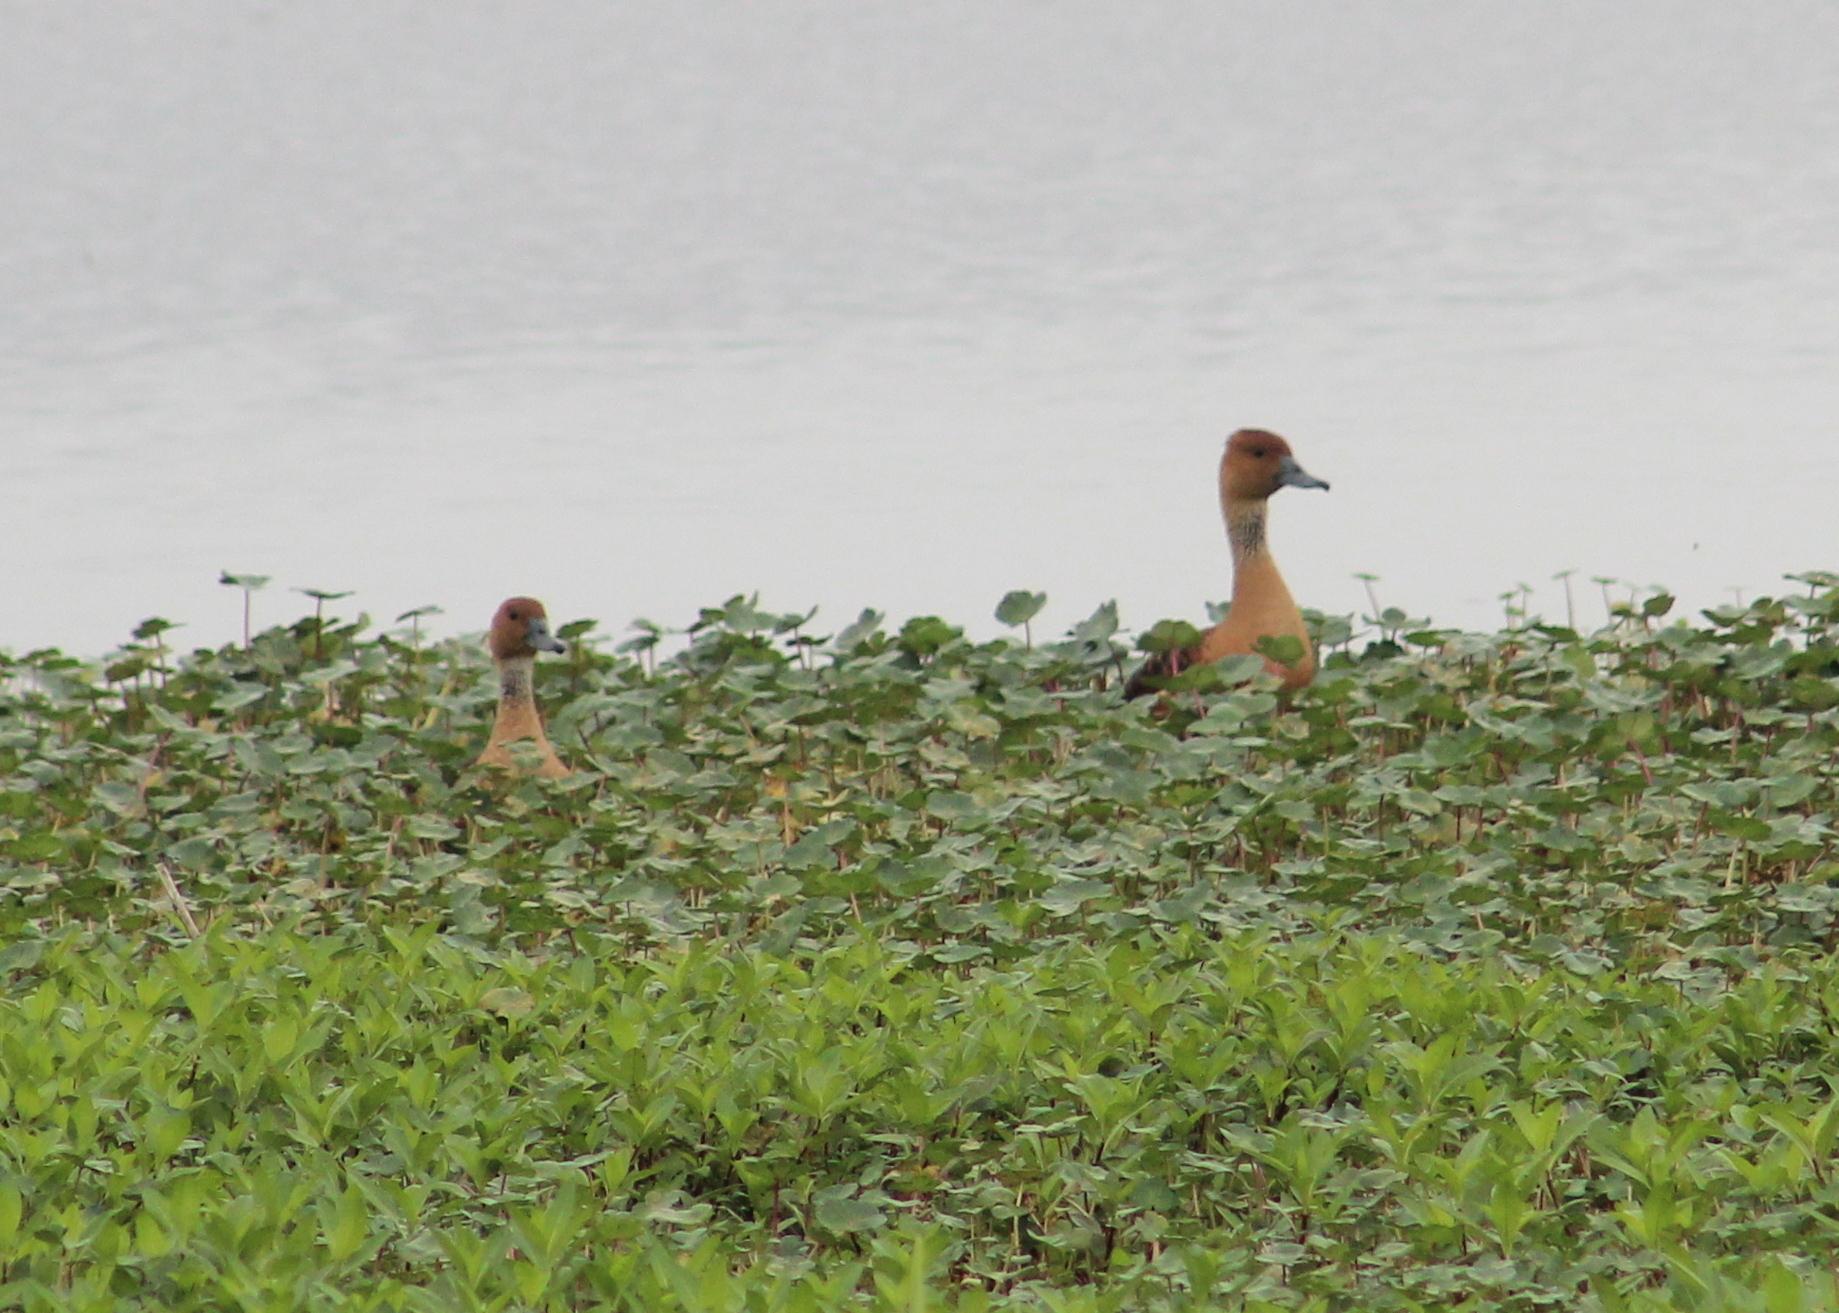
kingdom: Animalia
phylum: Chordata
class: Aves
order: Anseriformes
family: Anatidae
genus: Dendrocygna
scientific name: Dendrocygna bicolor
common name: Fulvous whistling duck
